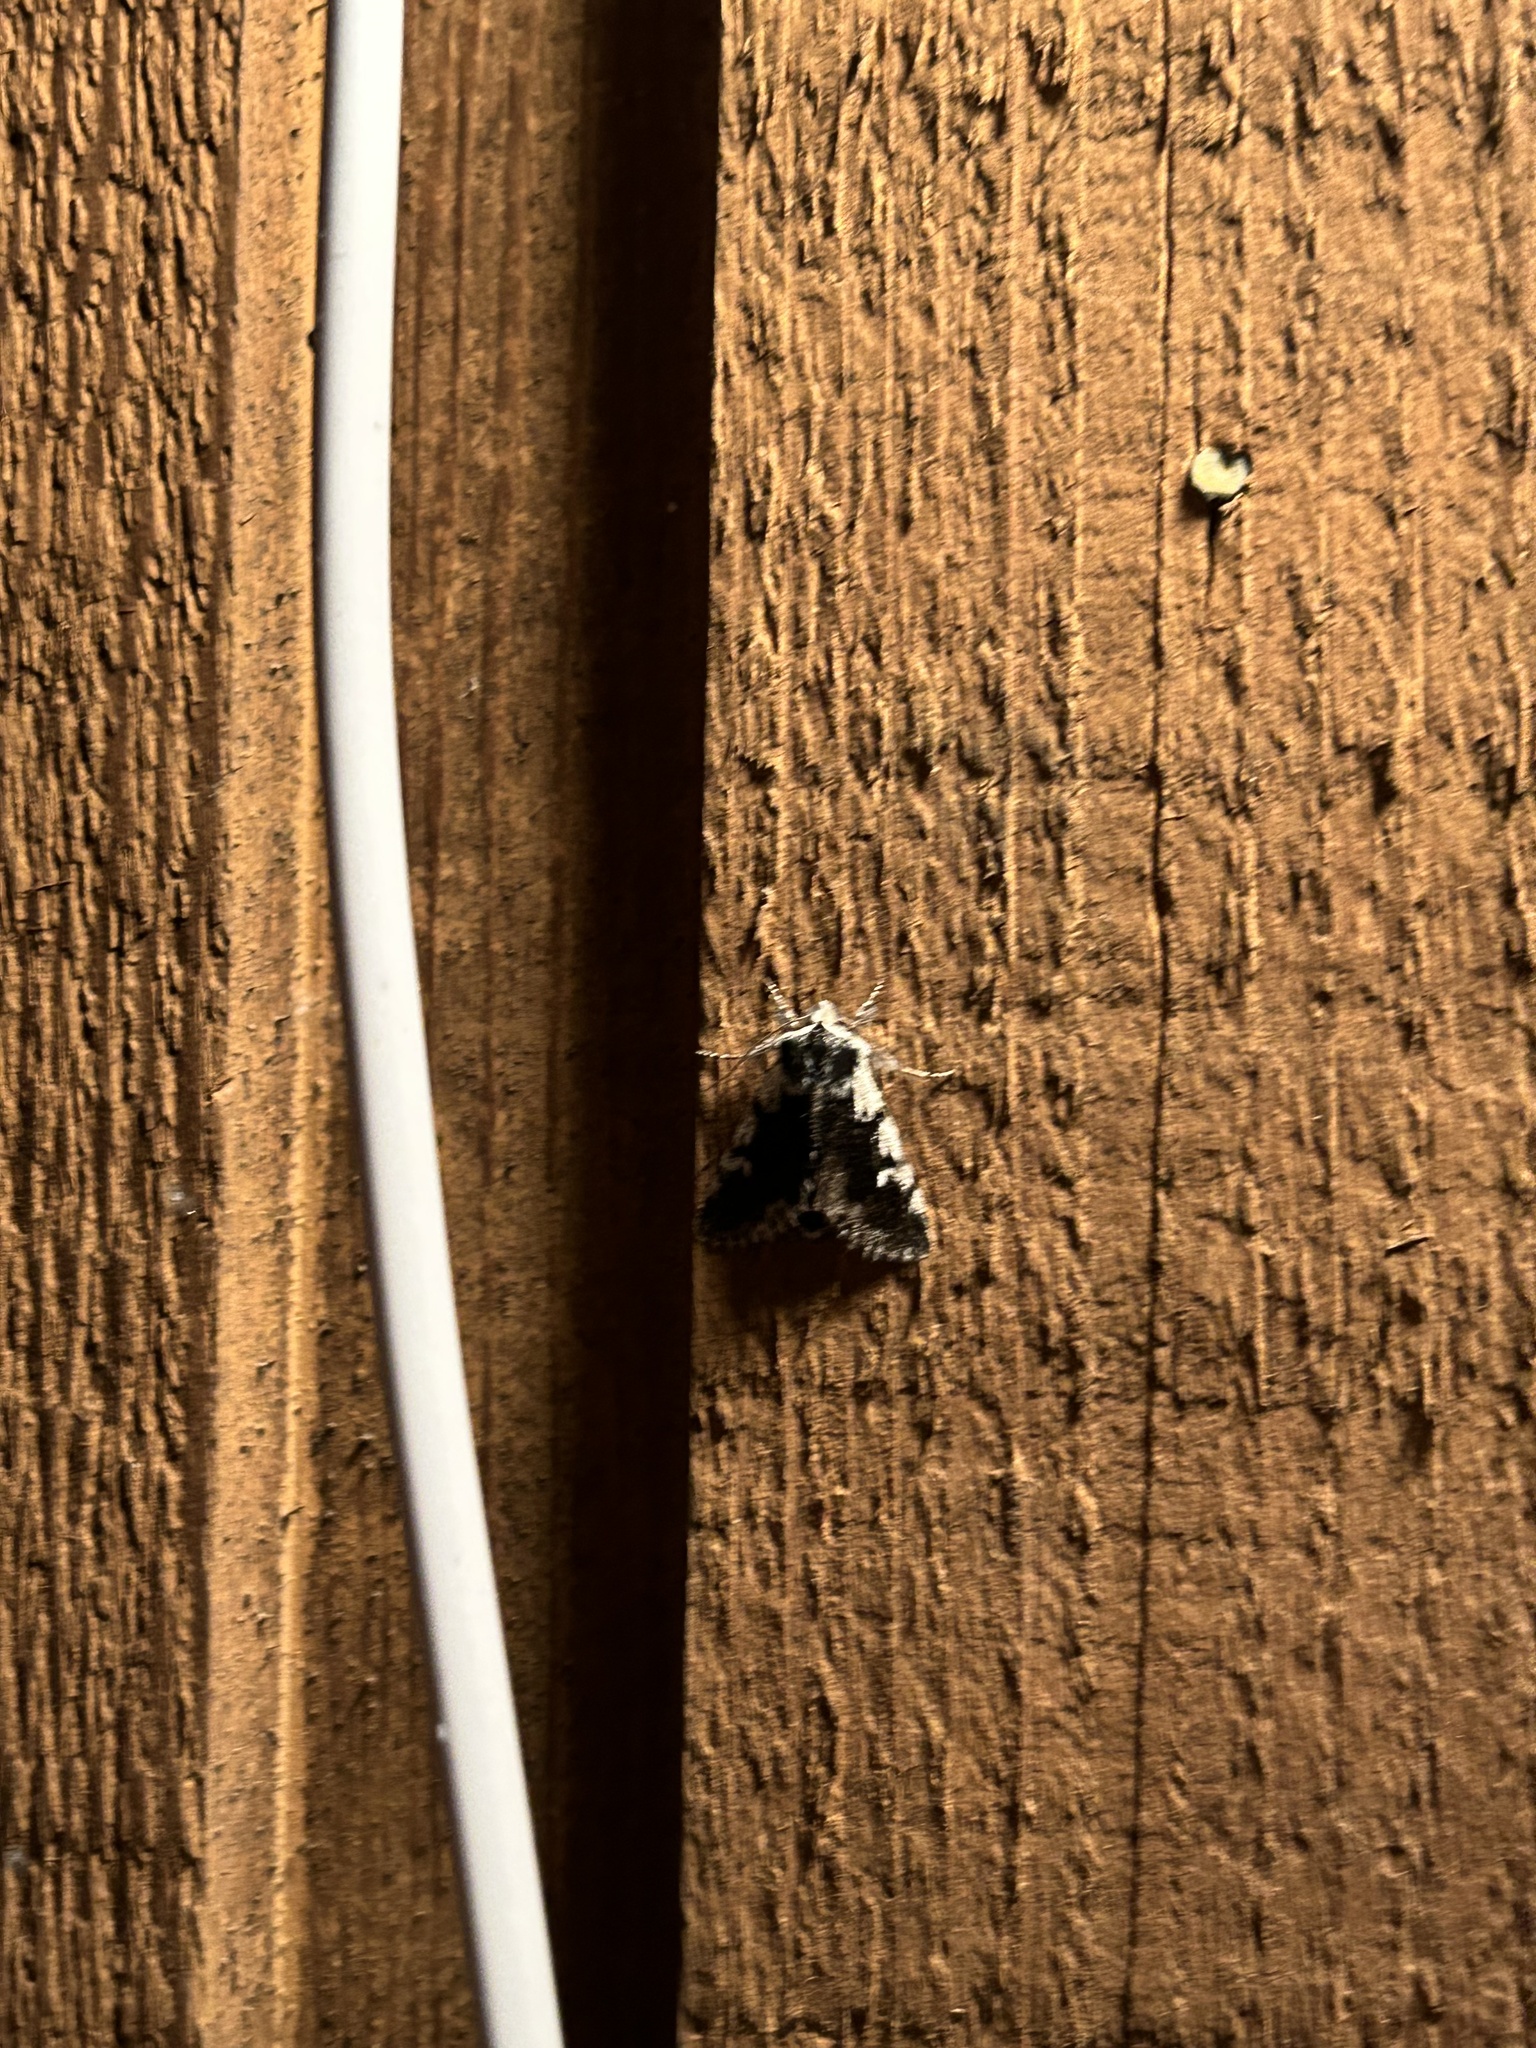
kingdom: Animalia
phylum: Arthropoda
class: Insecta
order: Lepidoptera
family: Noctuidae
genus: Pleromelloida
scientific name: Pleromelloida conserta
